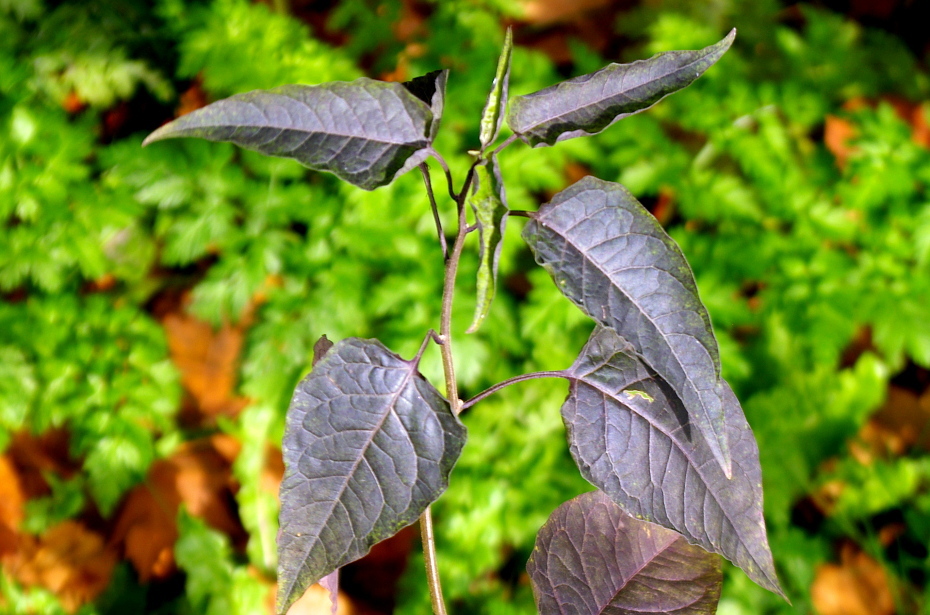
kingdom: Plantae
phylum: Tracheophyta
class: Magnoliopsida
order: Solanales
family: Solanaceae
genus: Solanum
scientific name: Solanum dulcamara
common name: Climbing nightshade
